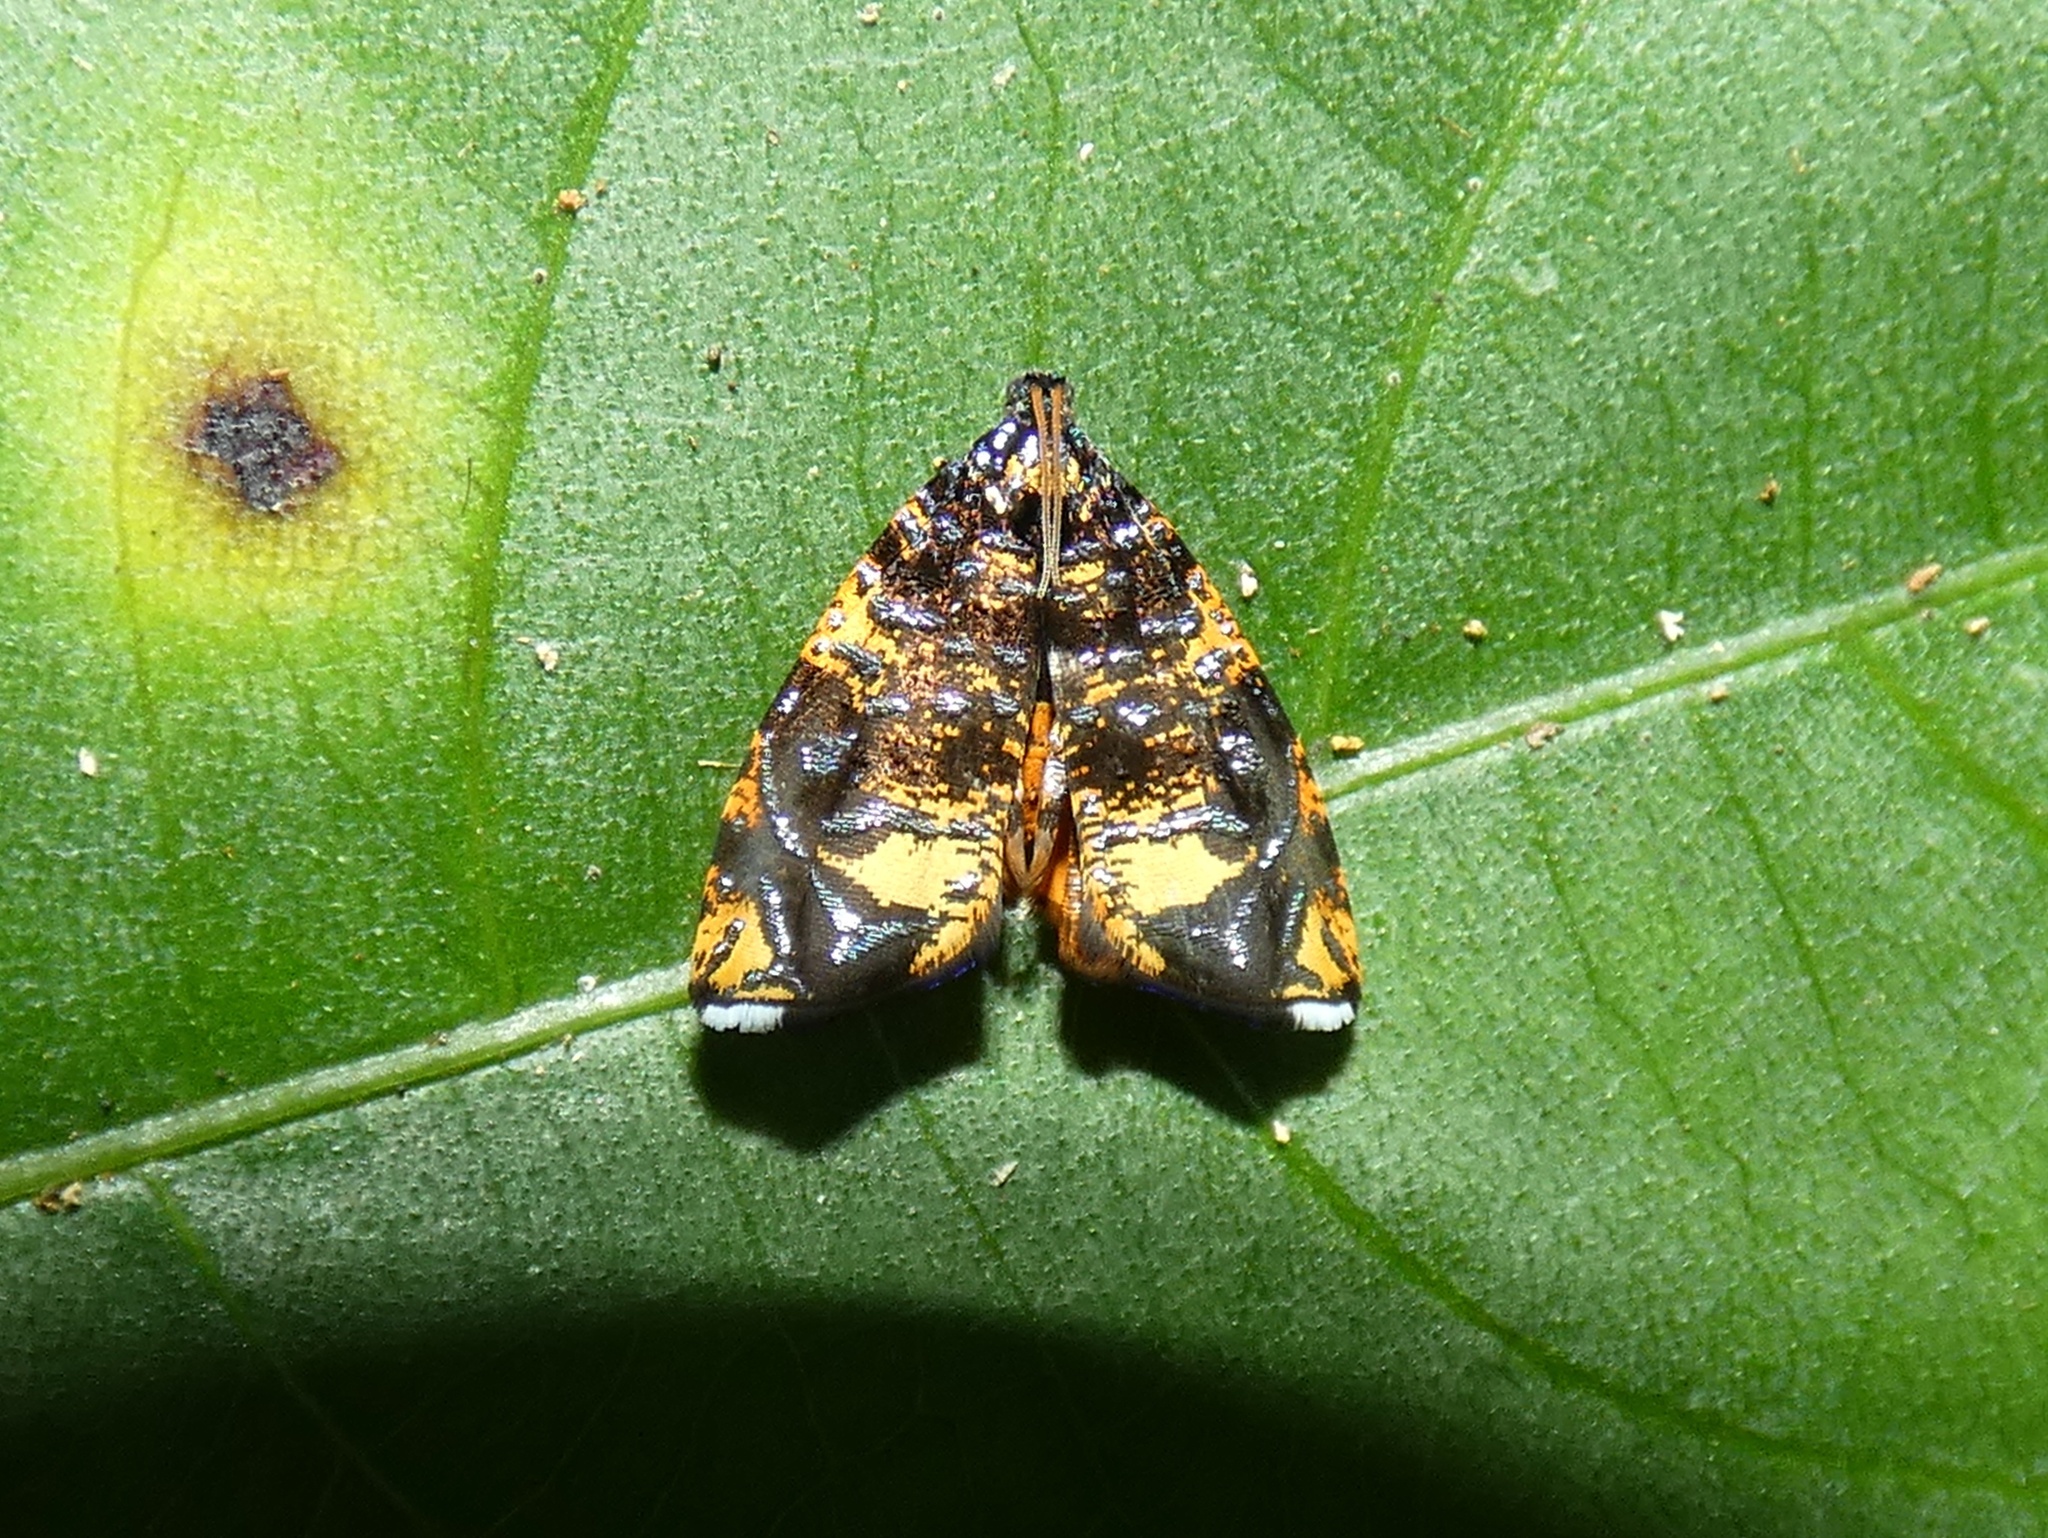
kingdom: Animalia
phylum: Arthropoda
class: Insecta
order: Lepidoptera
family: Tortricidae
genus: Mictopsichia
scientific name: Mictopsichia hubneriana
